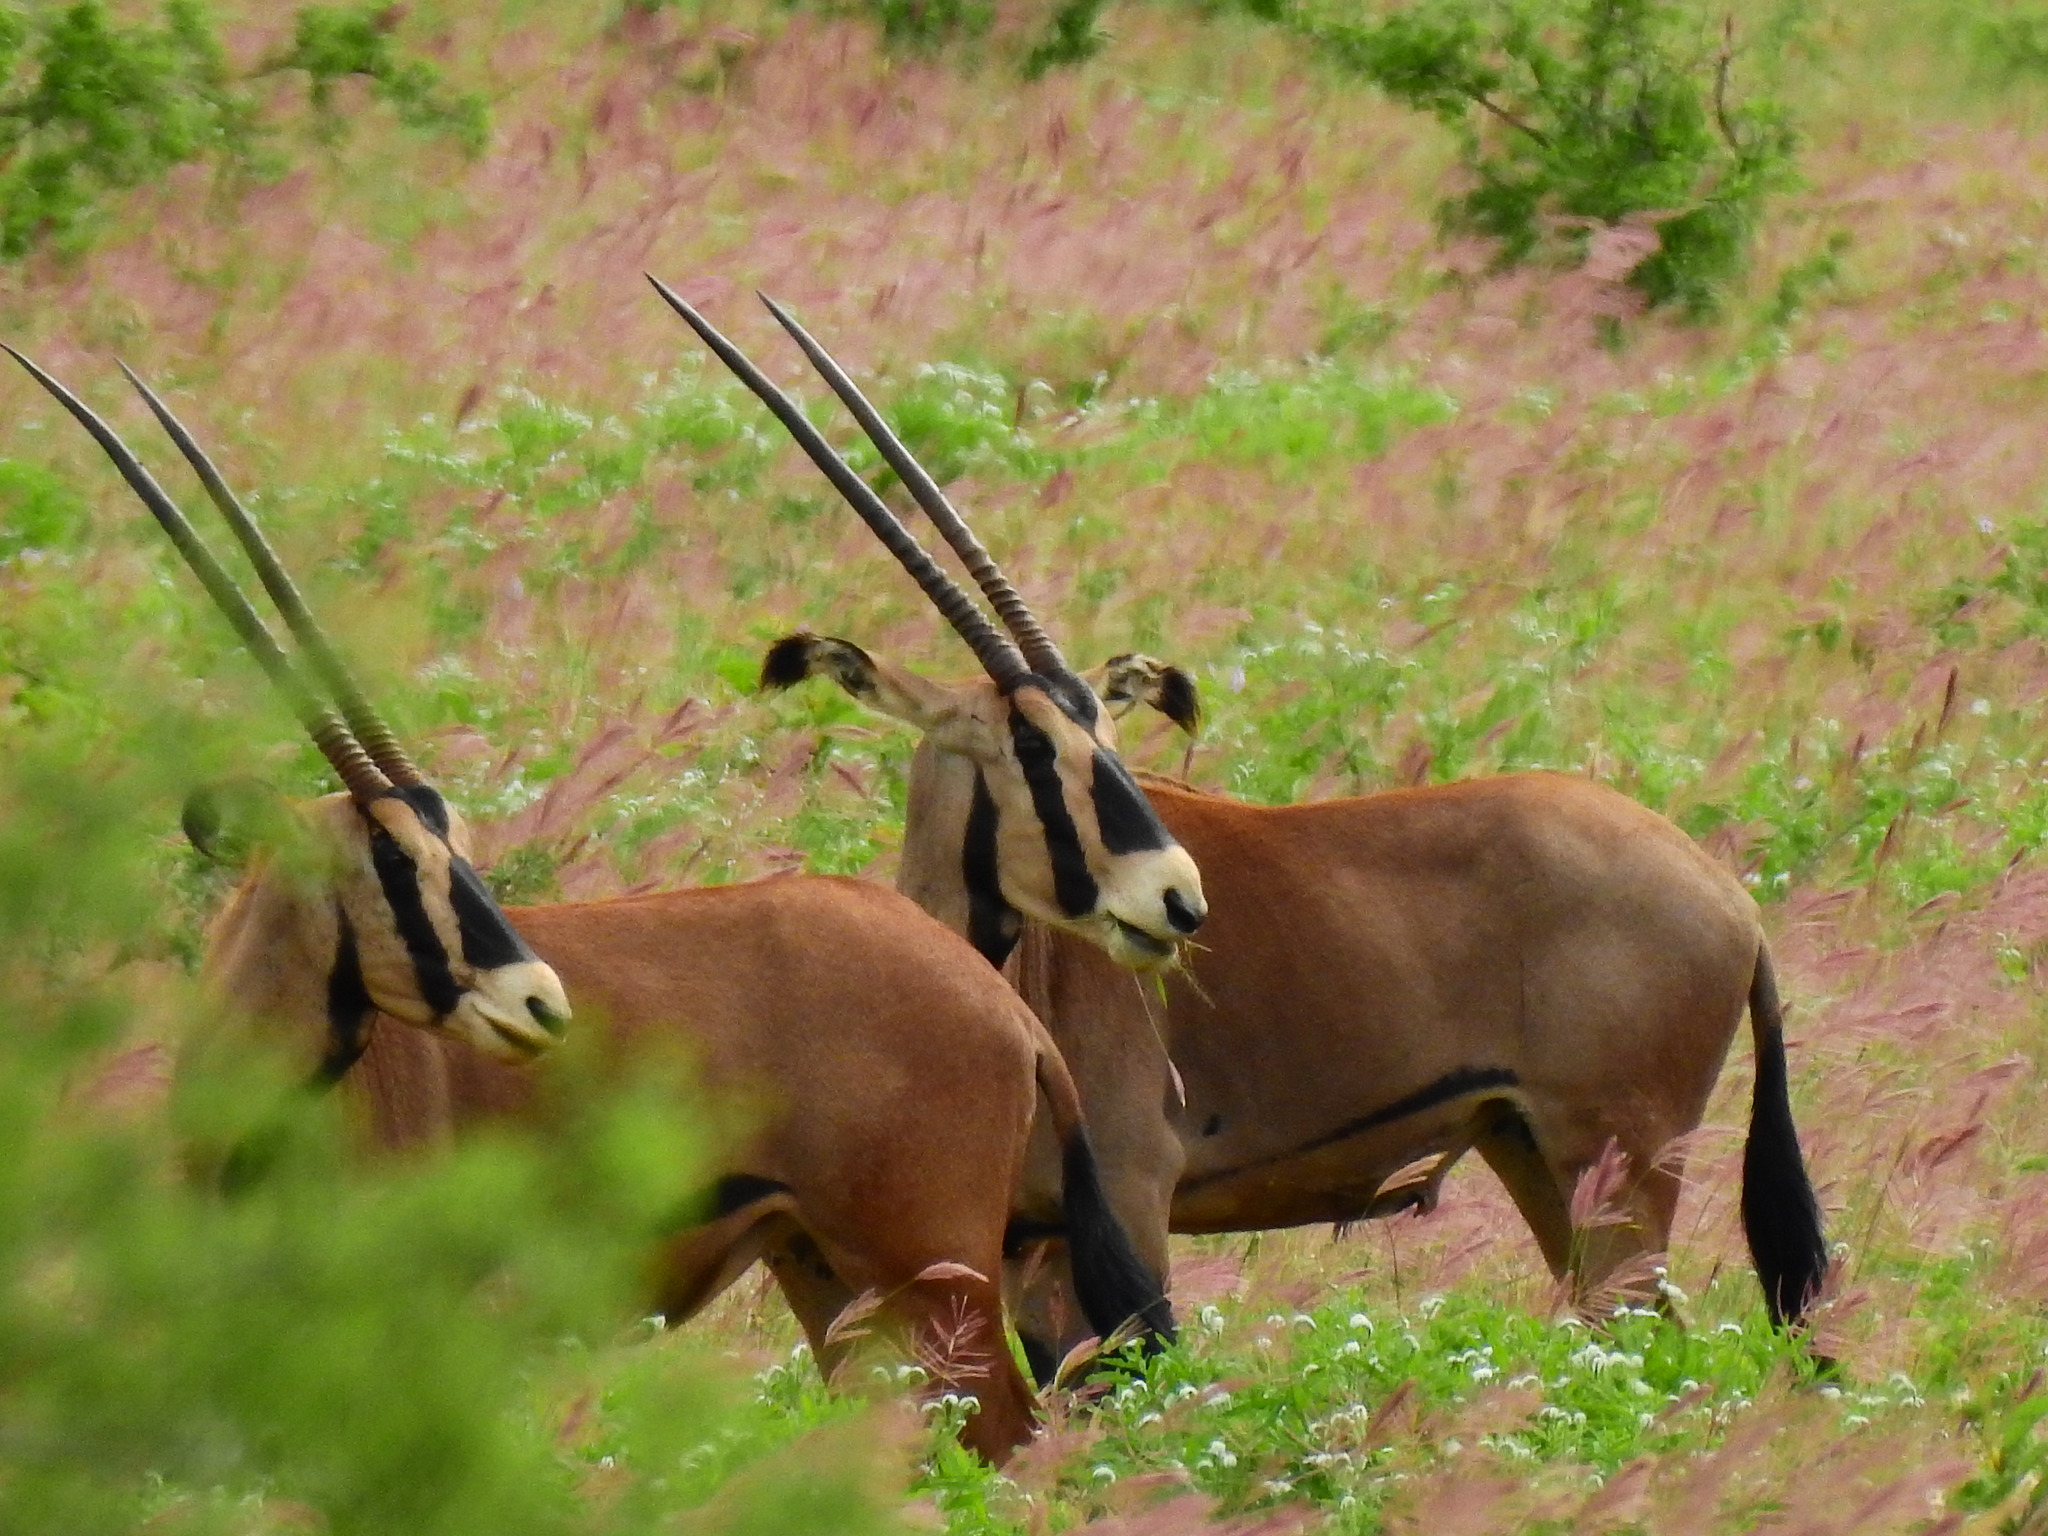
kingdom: Animalia
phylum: Chordata
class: Mammalia
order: Artiodactyla
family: Bovidae
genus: Oryx
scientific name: Oryx beisa
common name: Beisa
